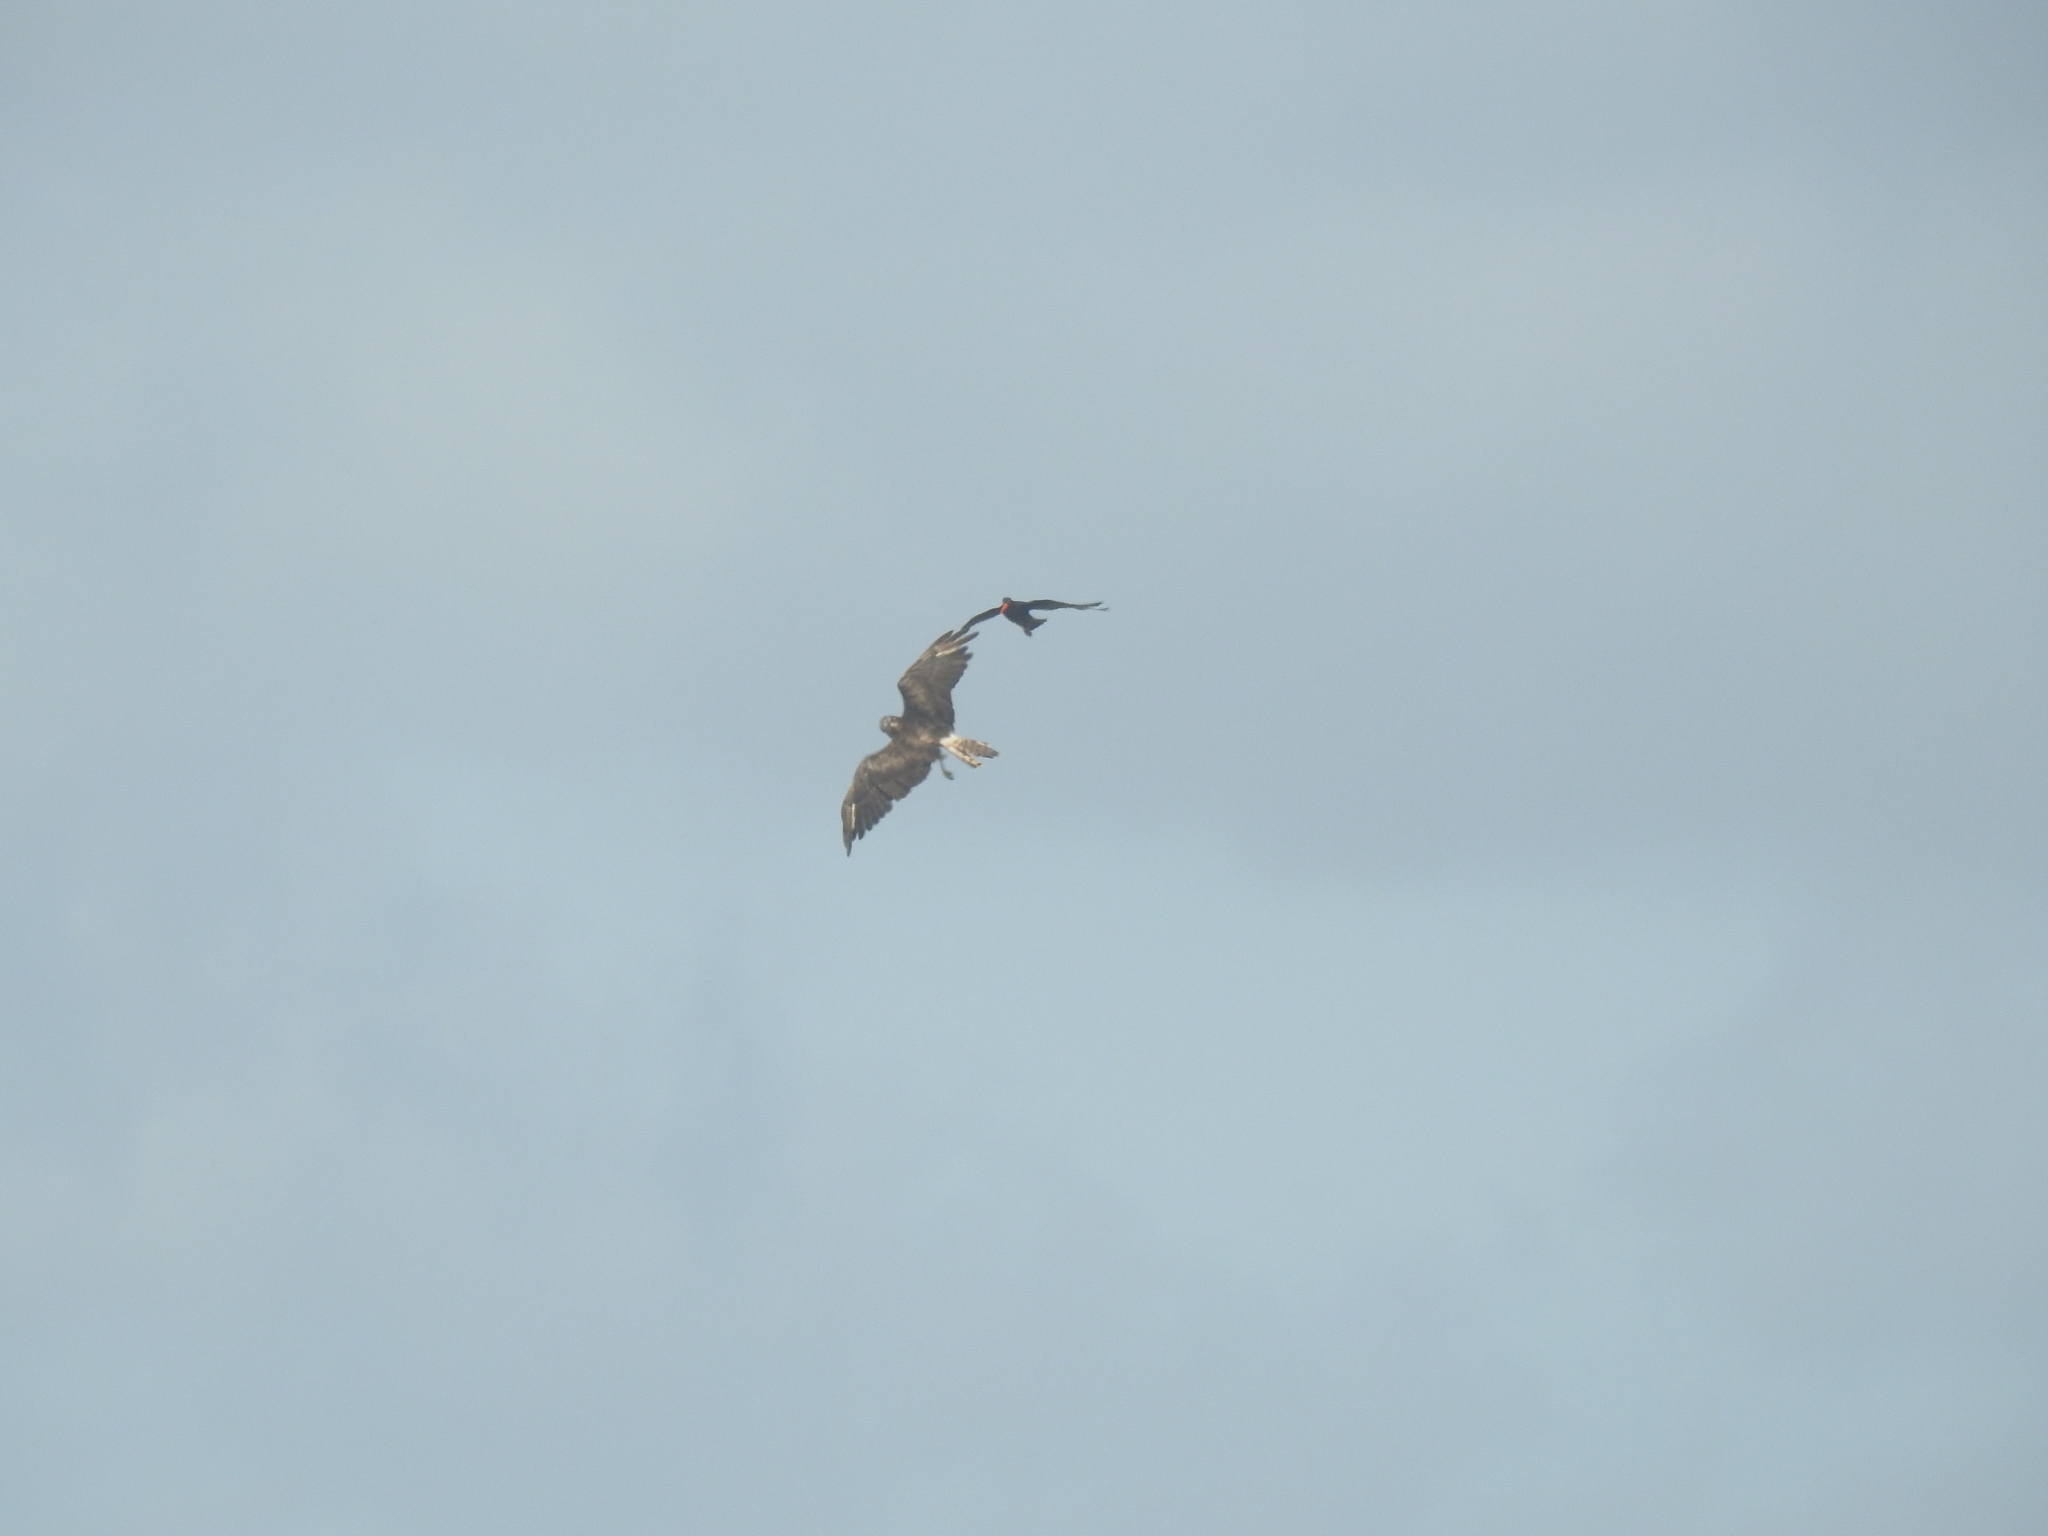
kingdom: Animalia
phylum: Chordata
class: Aves
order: Accipitriformes
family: Accipitridae
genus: Circus
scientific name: Circus approximans
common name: Swamp harrier
